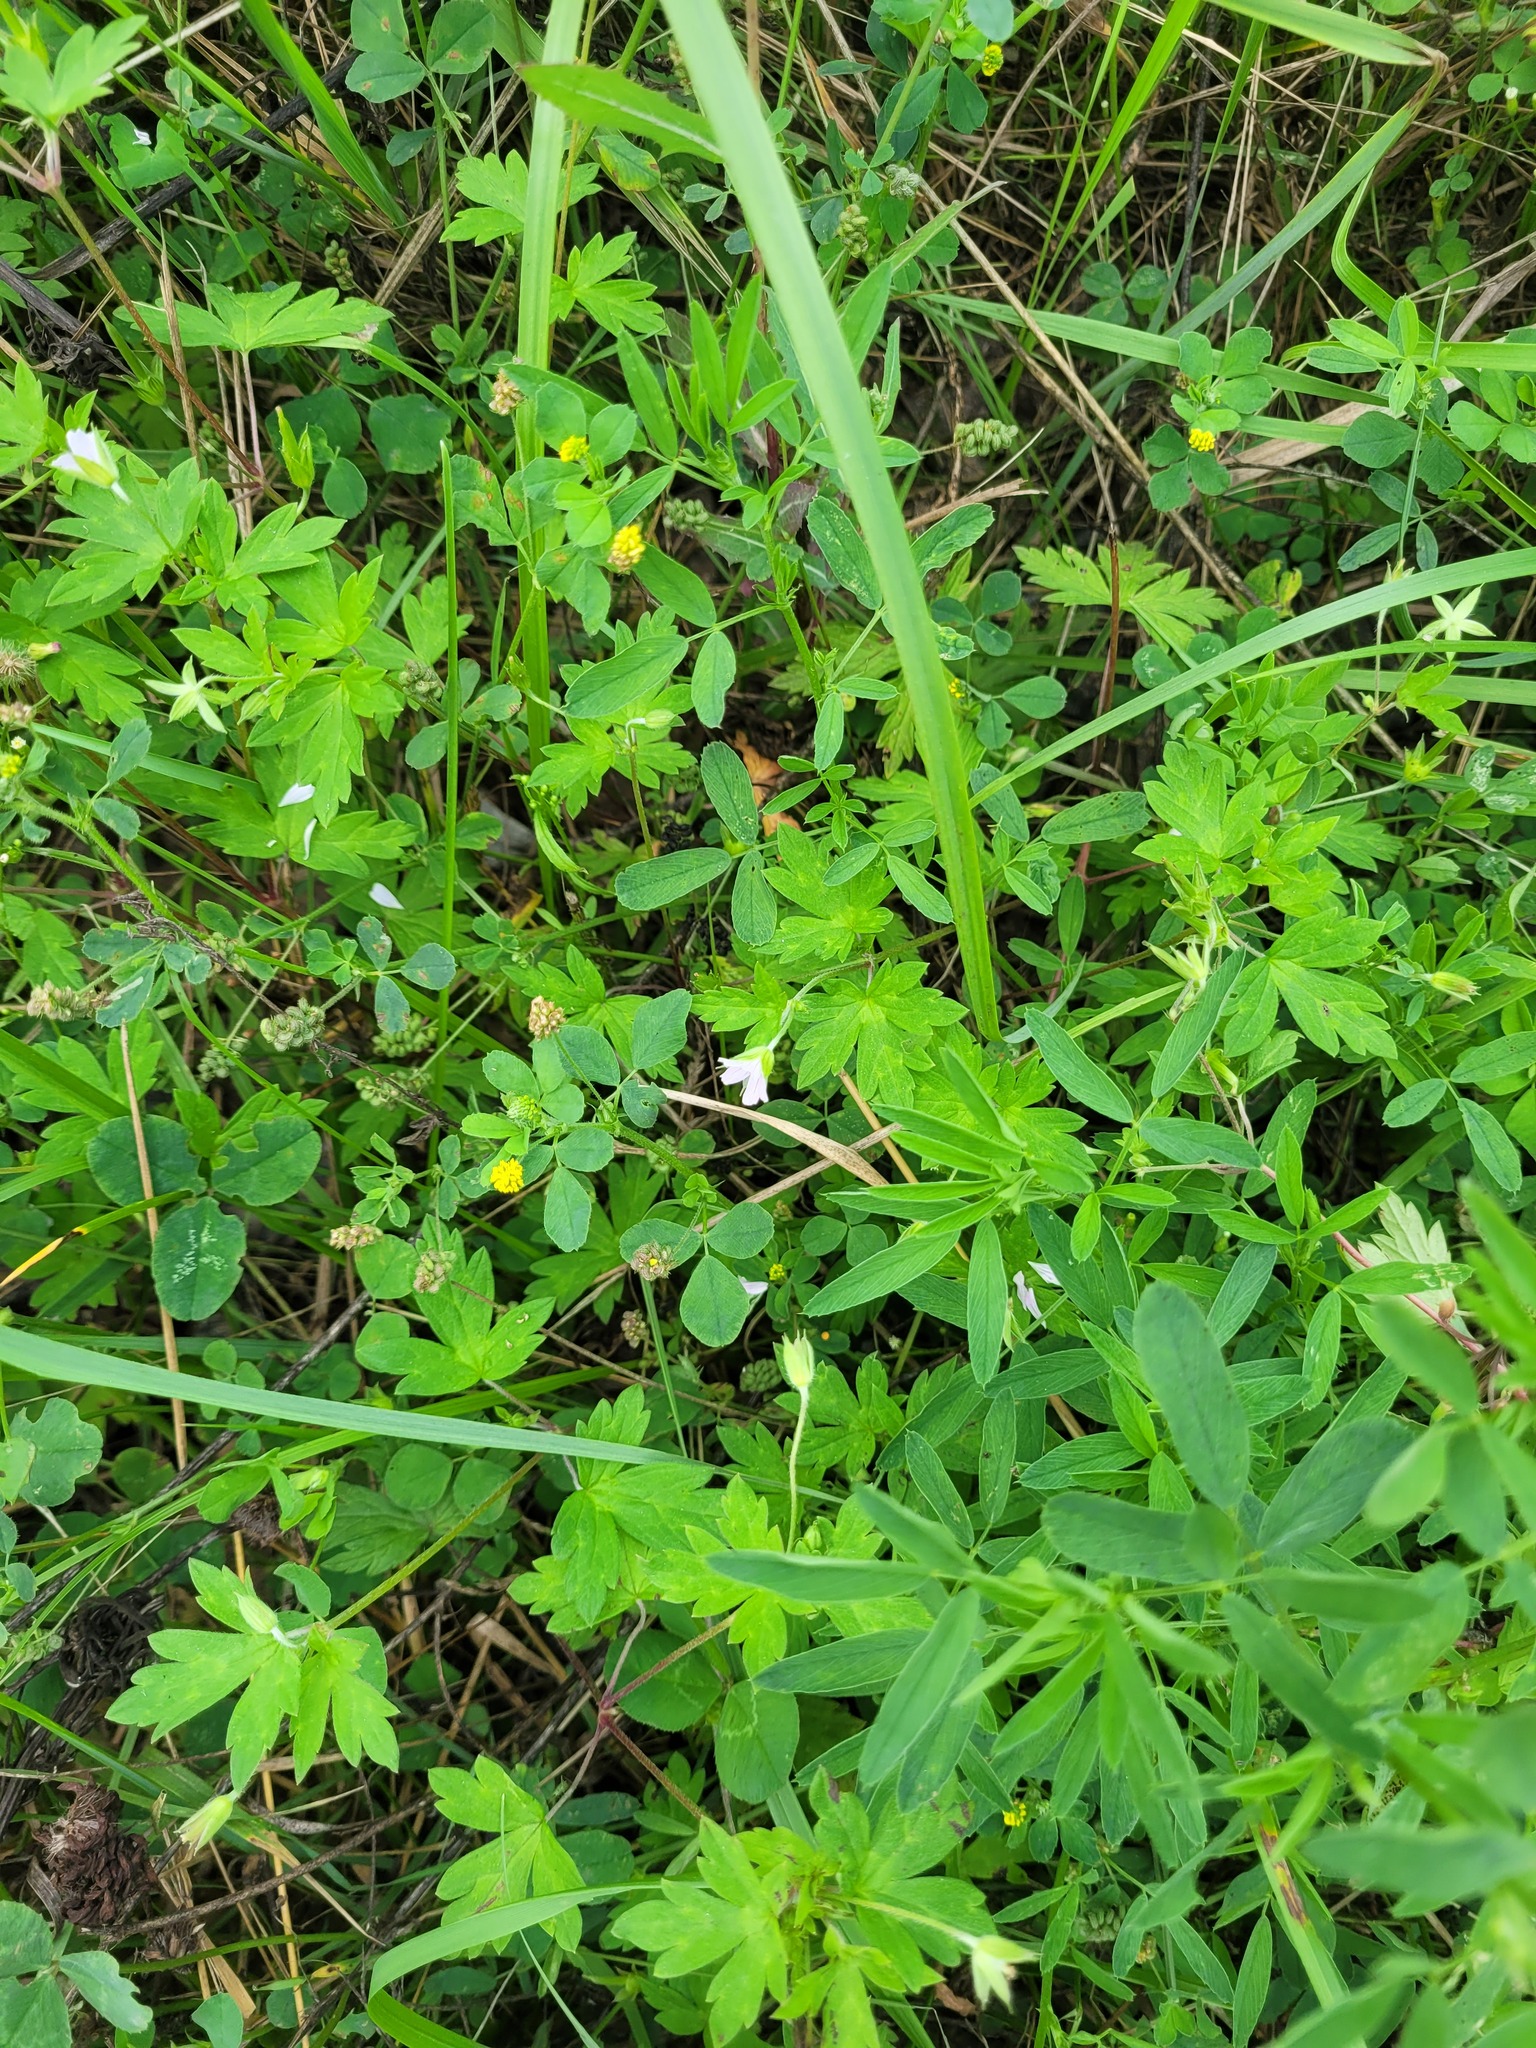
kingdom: Plantae
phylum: Tracheophyta
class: Magnoliopsida
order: Geraniales
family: Geraniaceae
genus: Geranium
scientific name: Geranium sibiricum
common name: Siberian crane's-bill
